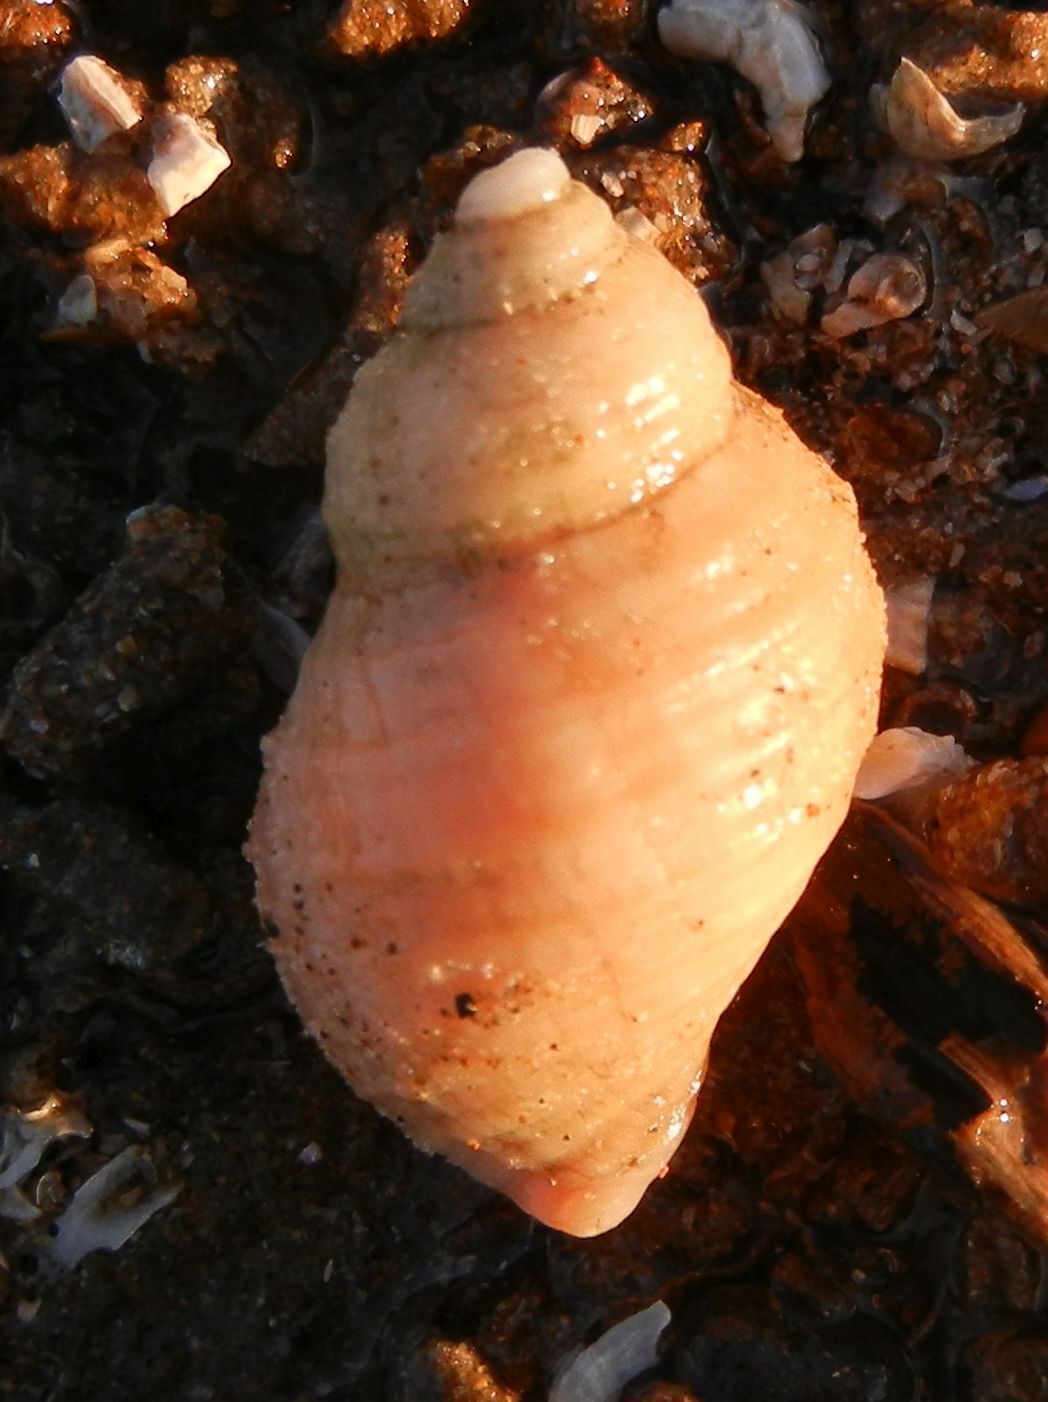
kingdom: Animalia
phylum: Mollusca
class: Gastropoda
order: Neogastropoda
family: Muricidae
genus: Nucella
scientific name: Nucella lapillus
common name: Dog whelk
